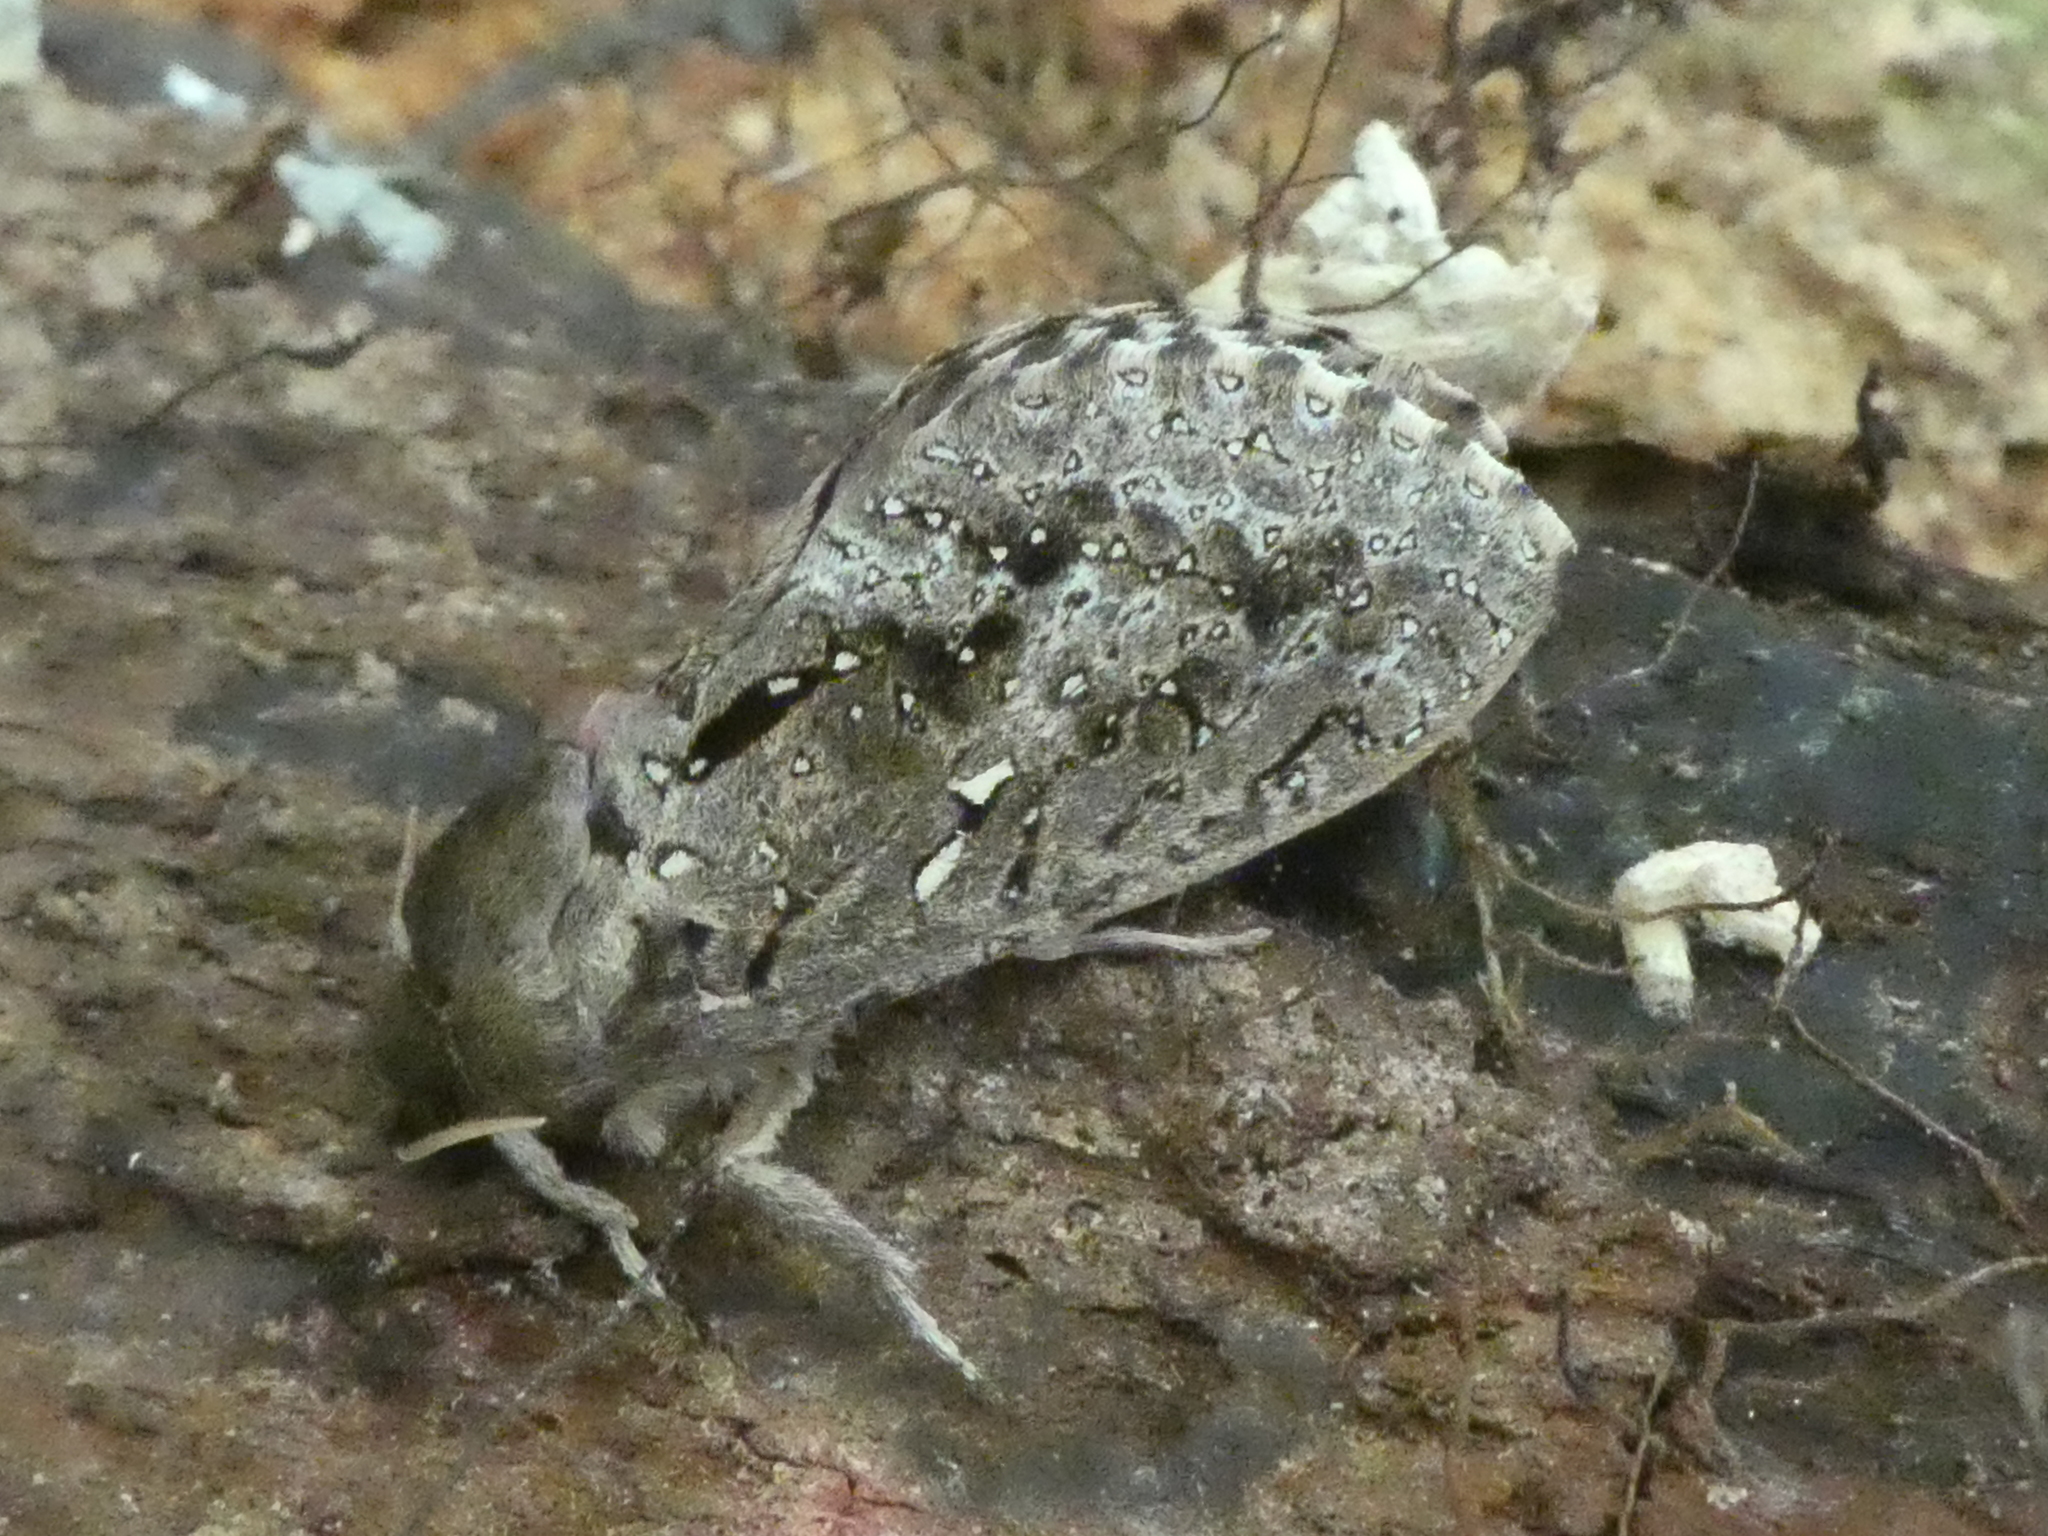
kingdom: Animalia
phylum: Arthropoda
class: Insecta
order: Lepidoptera
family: Hepialidae
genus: Dumbletonius
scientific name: Dumbletonius unimaculata
